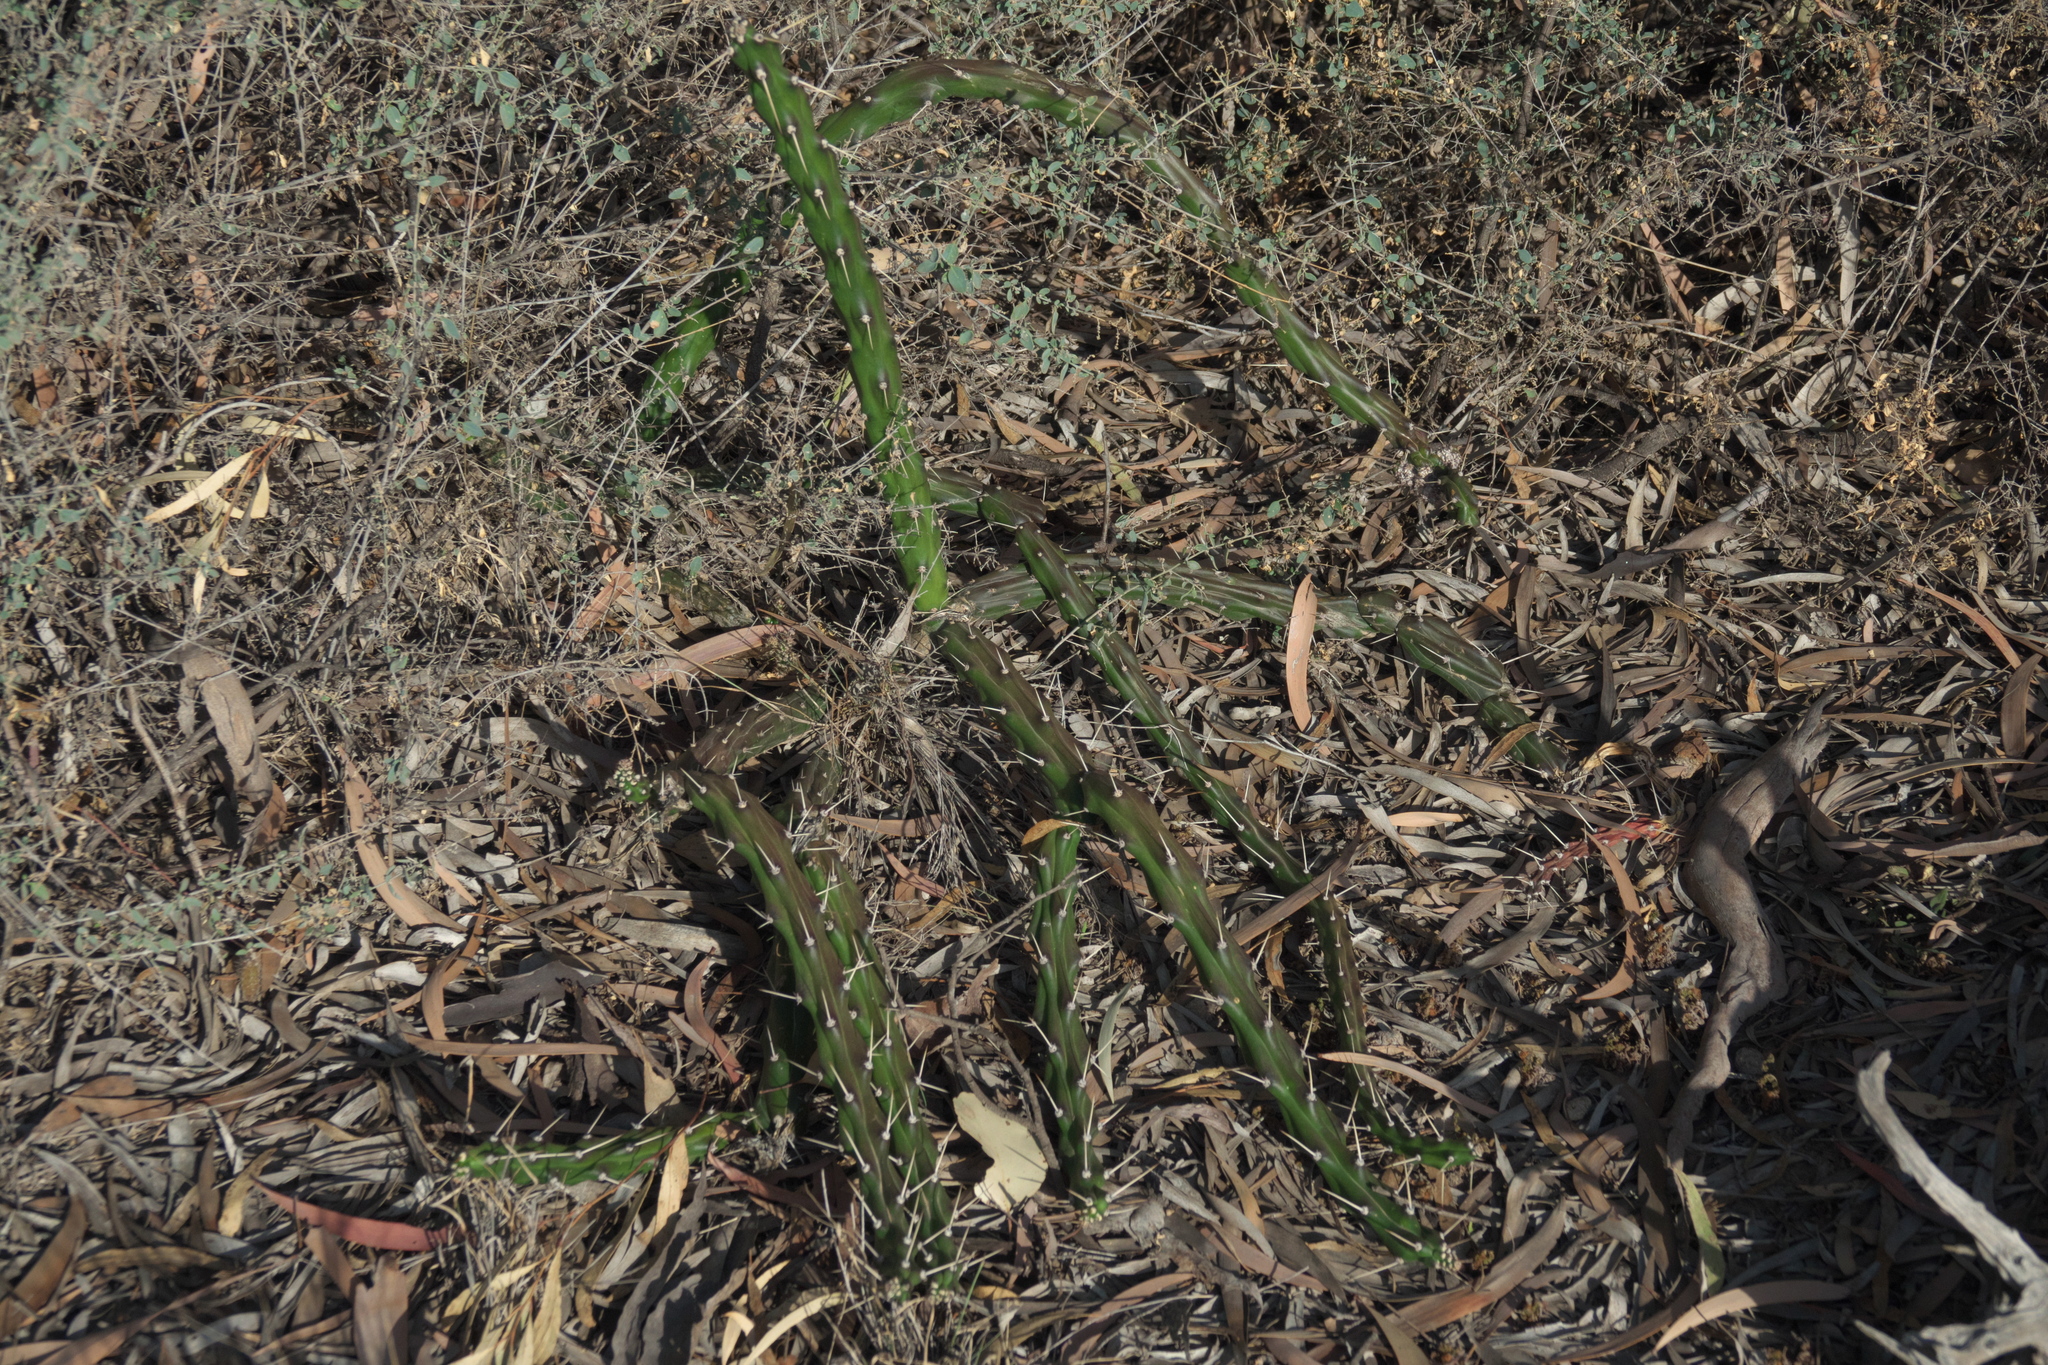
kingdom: Plantae
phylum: Tracheophyta
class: Magnoliopsida
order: Caryophyllales
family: Cactaceae
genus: Harrisia
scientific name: Harrisia martinii
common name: Moon cactus
